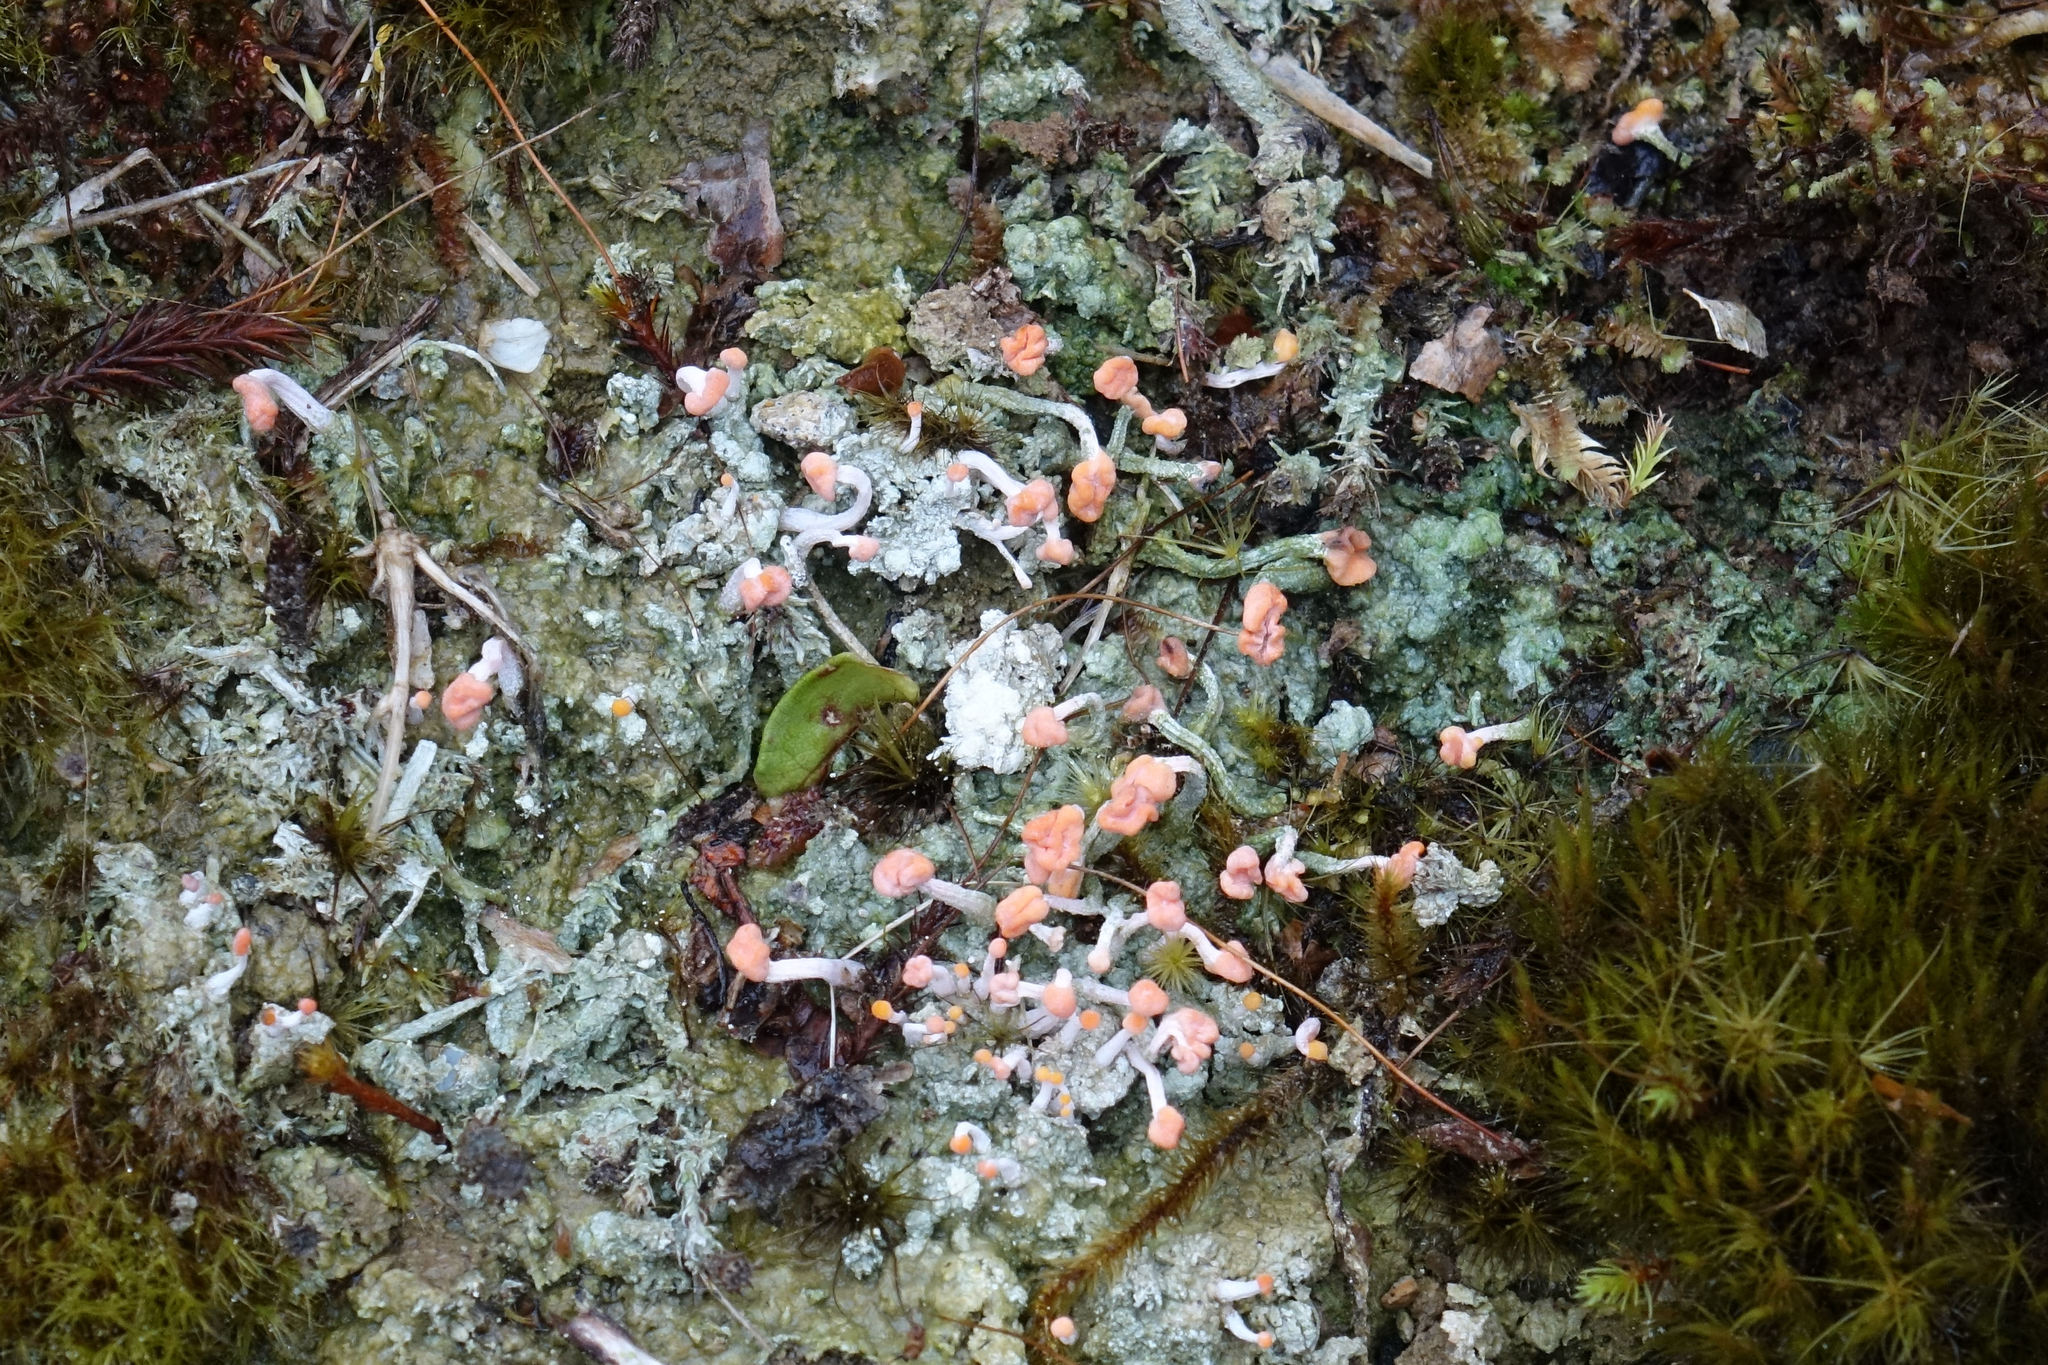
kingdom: Fungi
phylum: Ascomycota
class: Lecanoromycetes
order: Pertusariales
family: Icmadophilaceae
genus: Dibaeis
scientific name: Dibaeis arcuata
